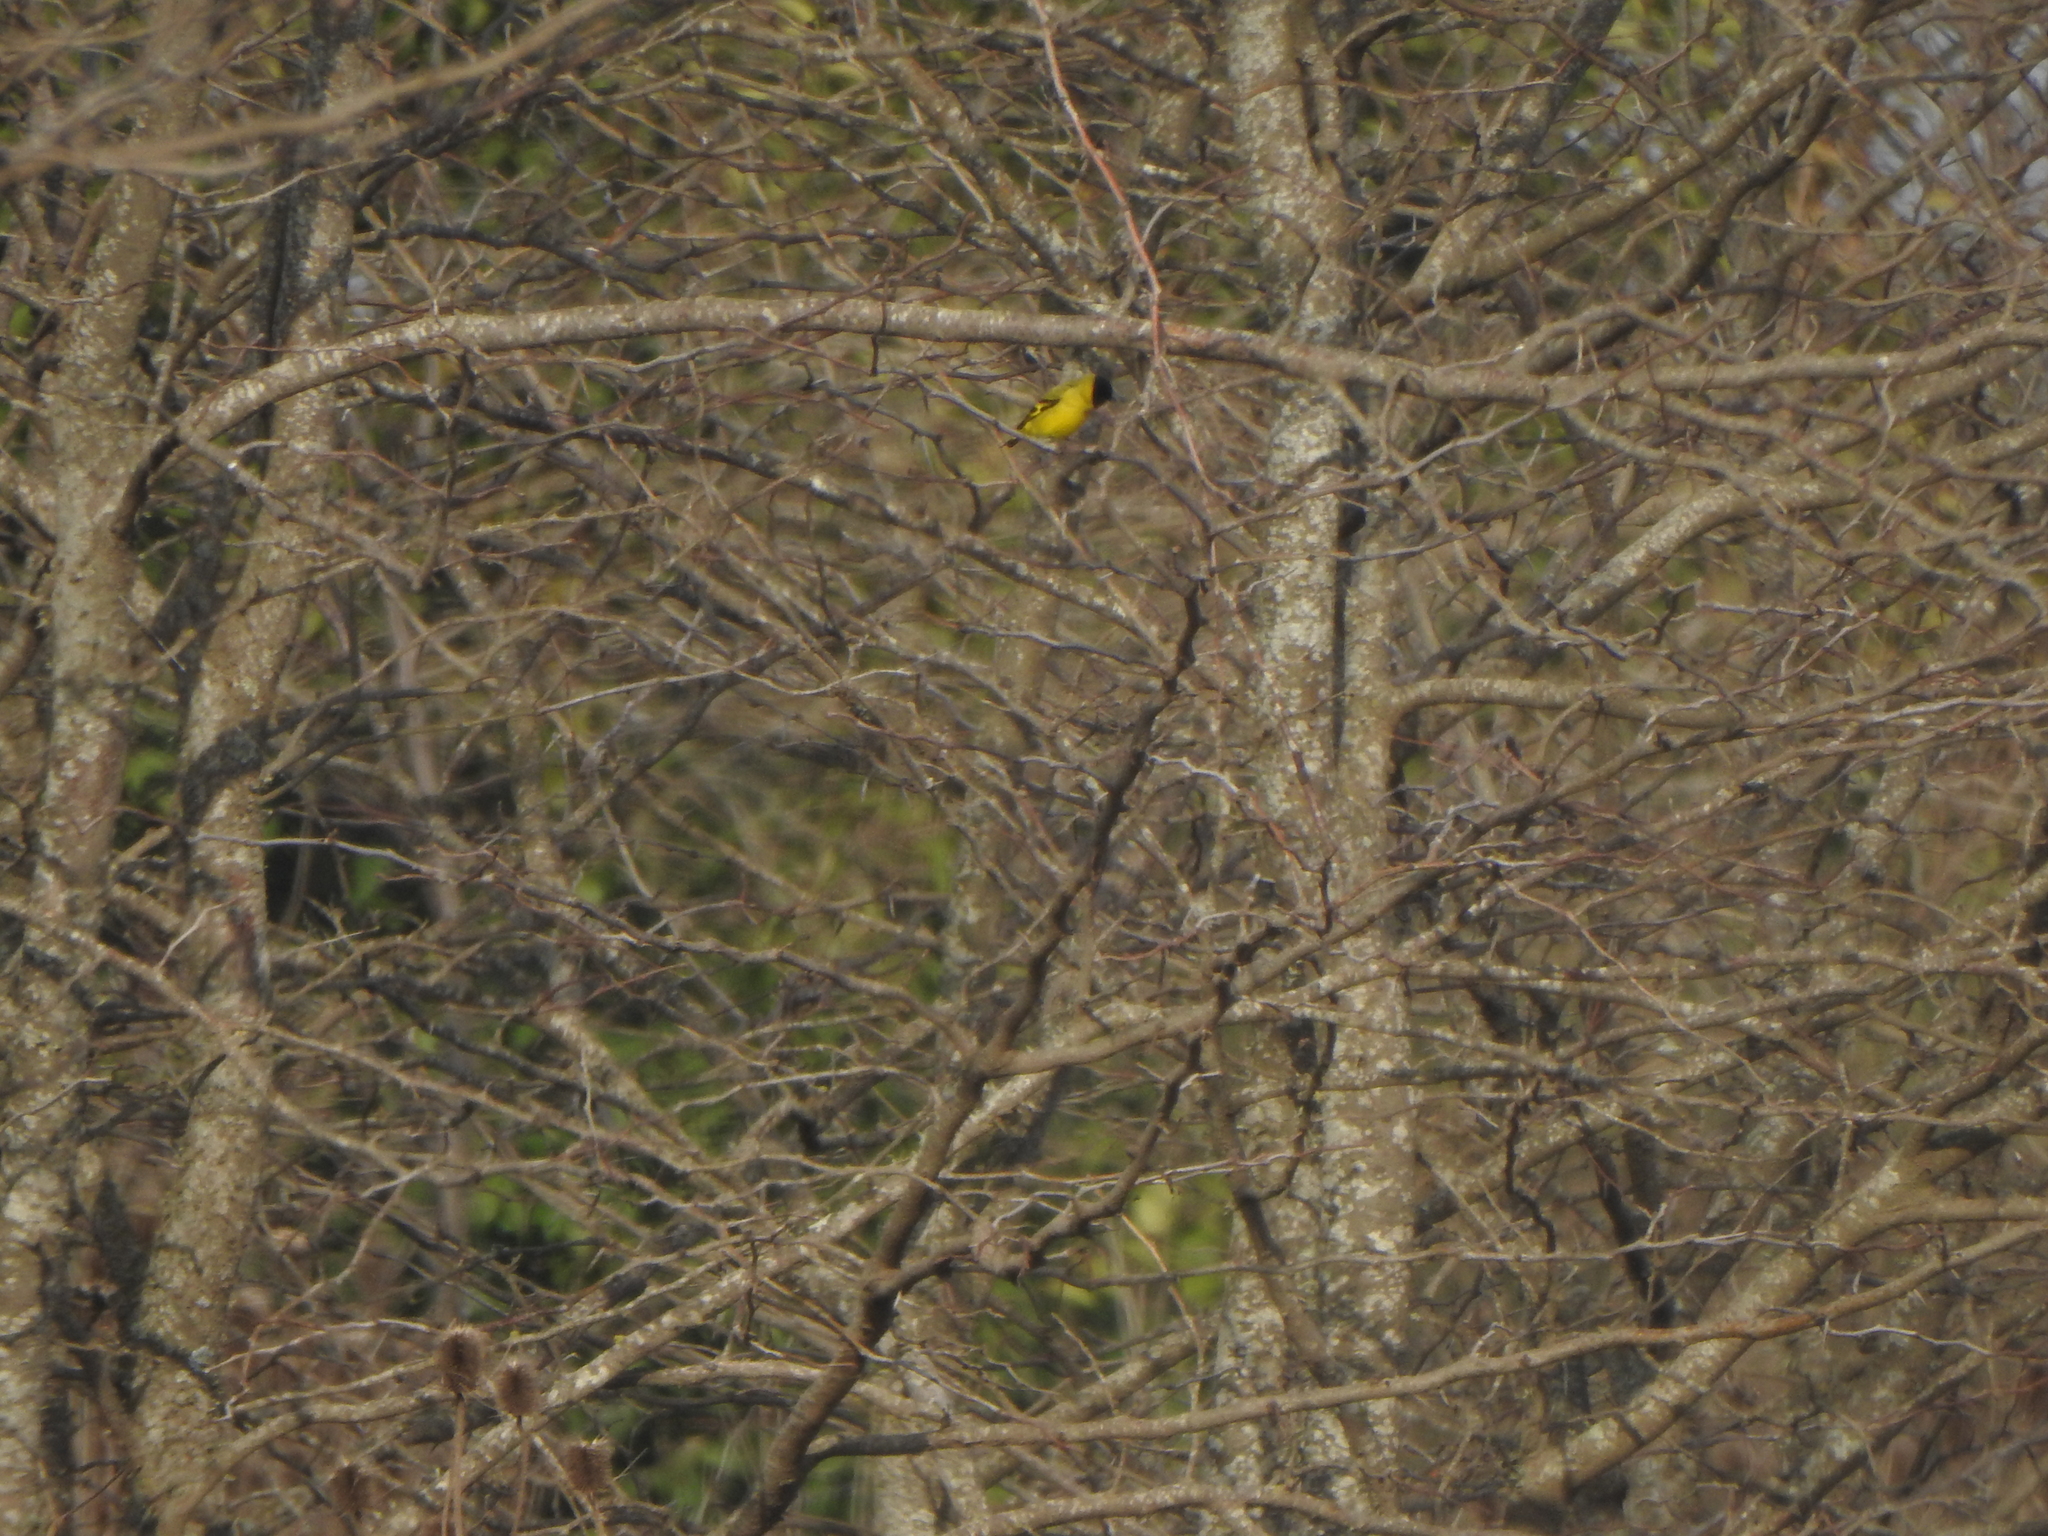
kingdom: Animalia
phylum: Chordata
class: Aves
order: Passeriformes
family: Fringillidae
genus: Spinus
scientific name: Spinus magellanicus
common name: Hooded siskin
